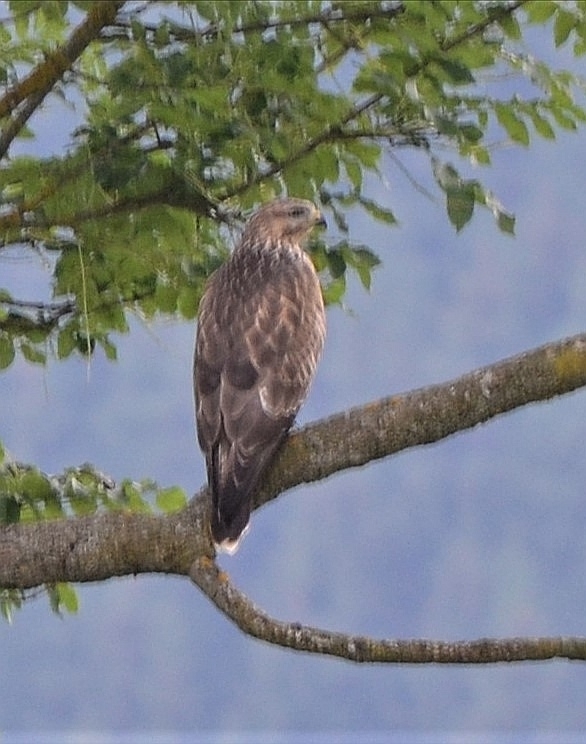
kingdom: Animalia
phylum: Chordata
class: Aves
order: Accipitriformes
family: Accipitridae
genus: Buteo
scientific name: Buteo buteo
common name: Common buzzard
